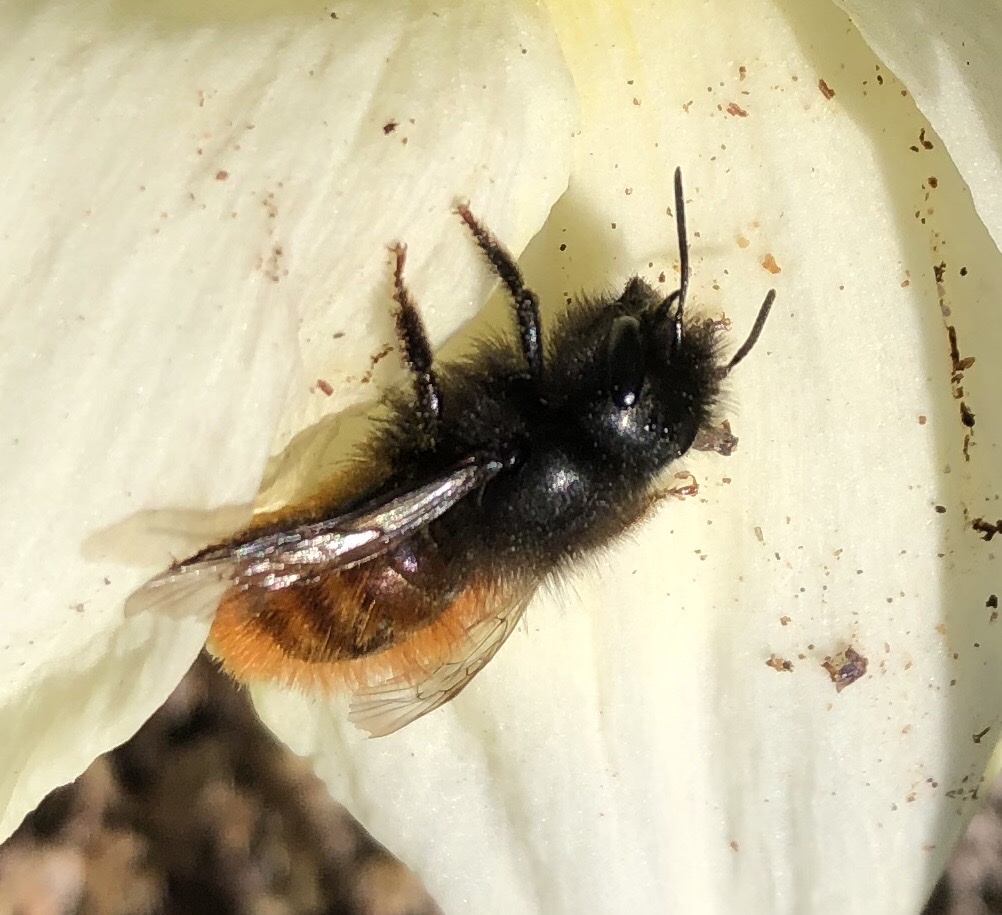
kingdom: Animalia
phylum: Arthropoda
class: Insecta
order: Hymenoptera
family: Megachilidae
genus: Osmia
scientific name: Osmia cornuta
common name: Mason bee
